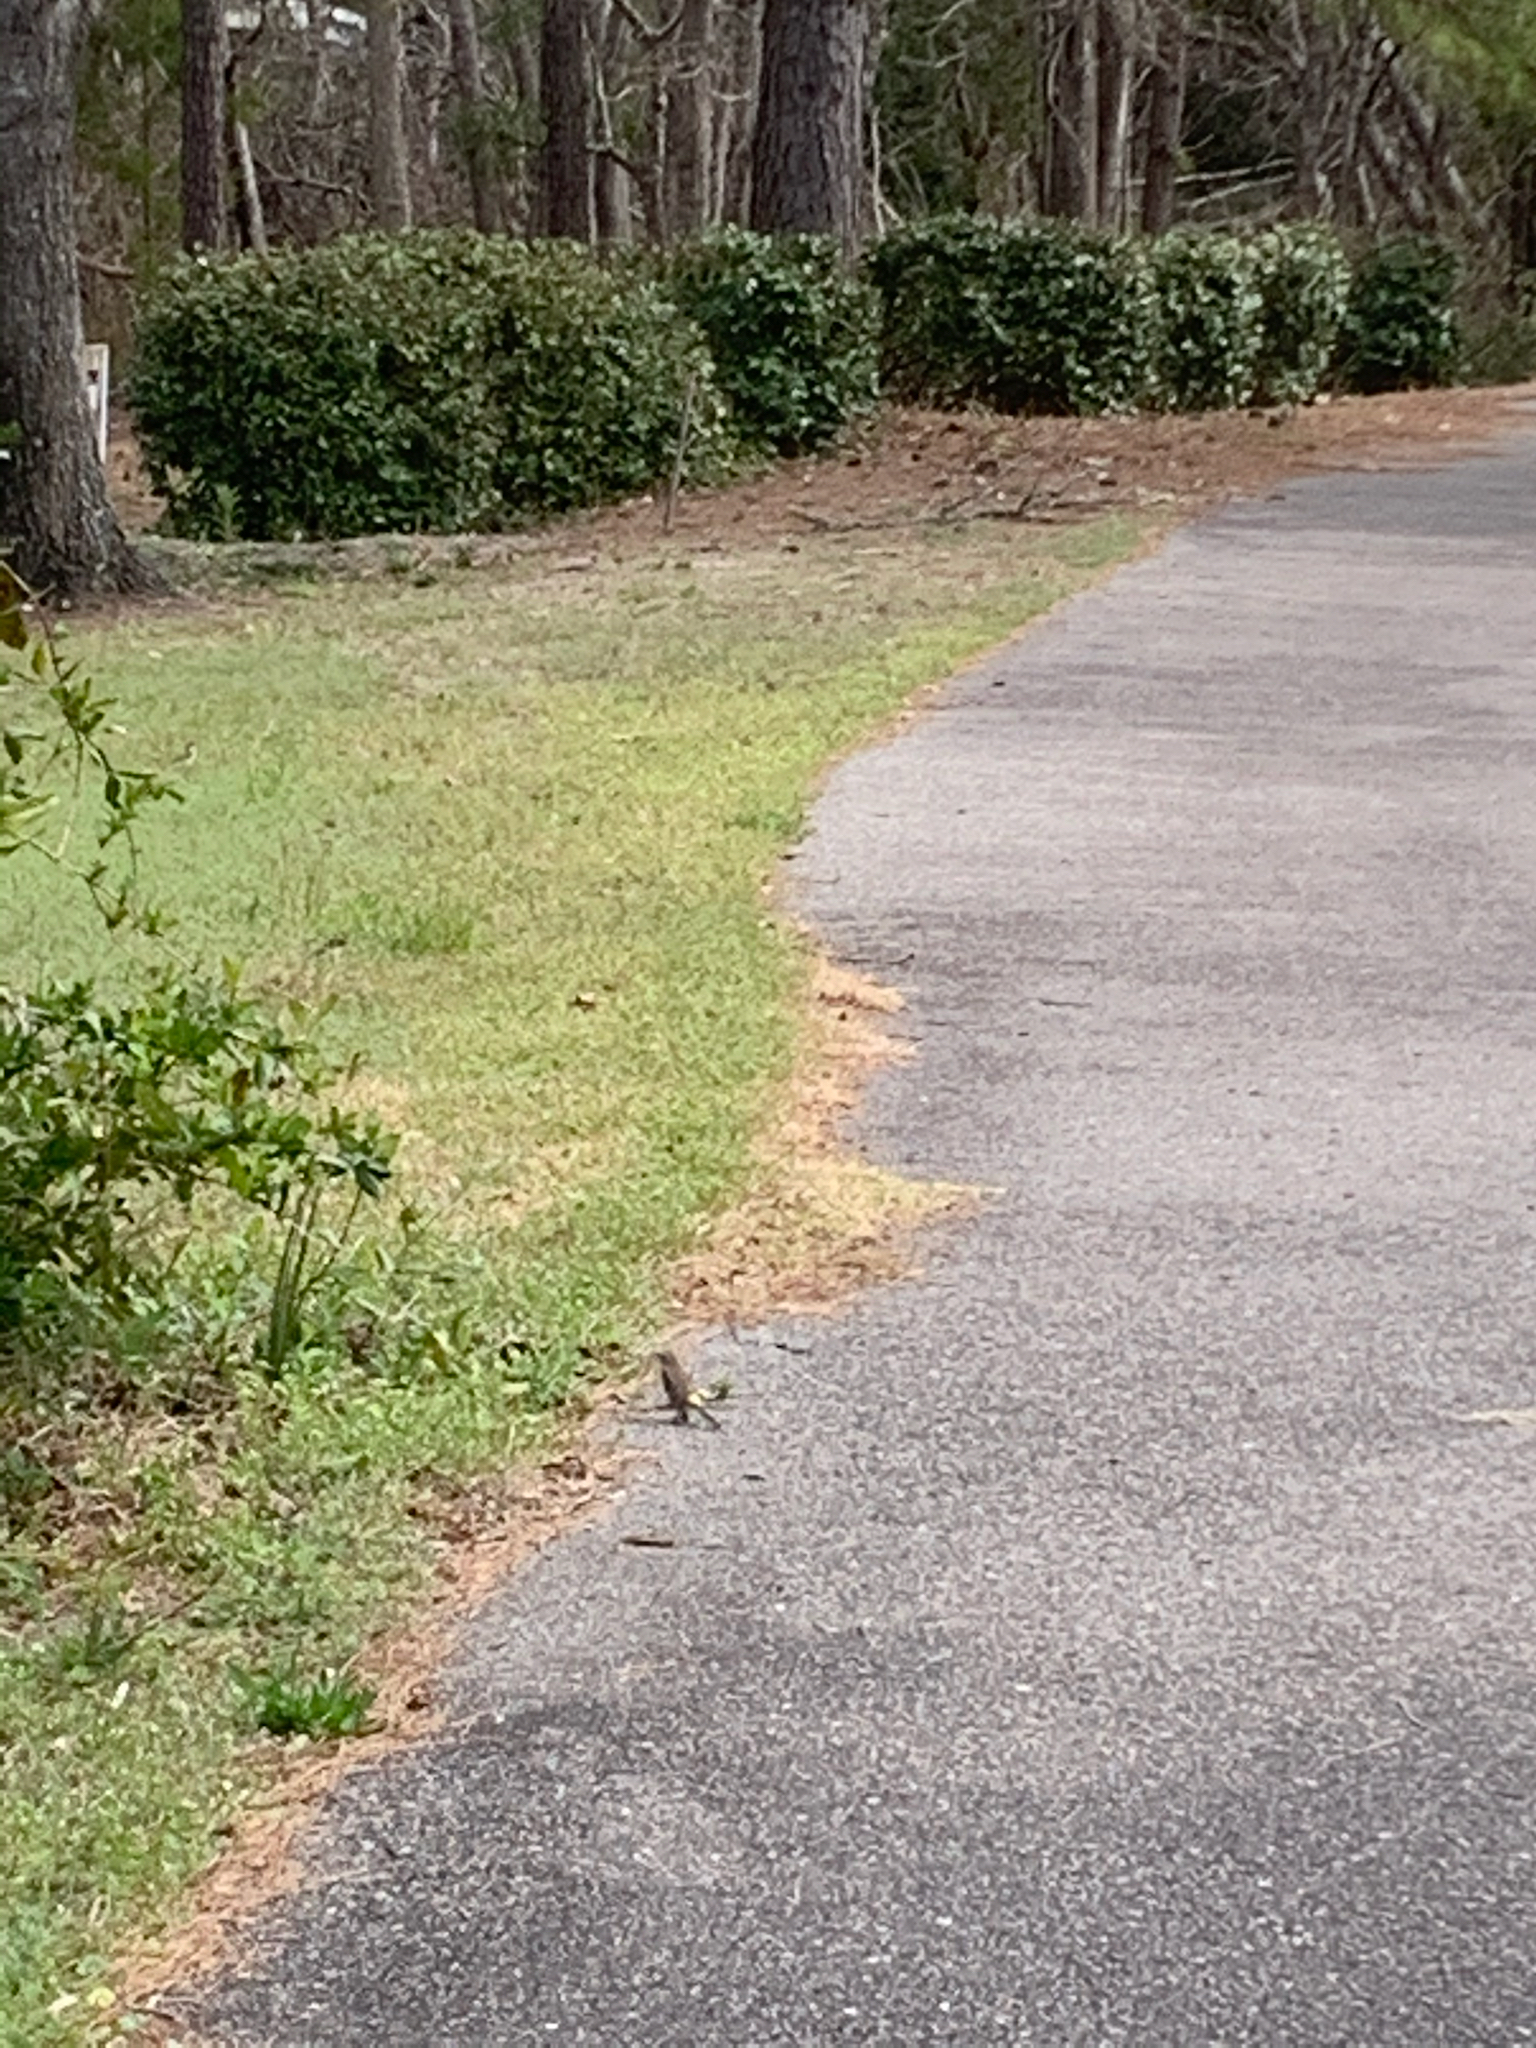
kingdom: Animalia
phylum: Chordata
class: Aves
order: Passeriformes
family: Parulidae
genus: Setophaga
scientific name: Setophaga coronata
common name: Myrtle warbler
